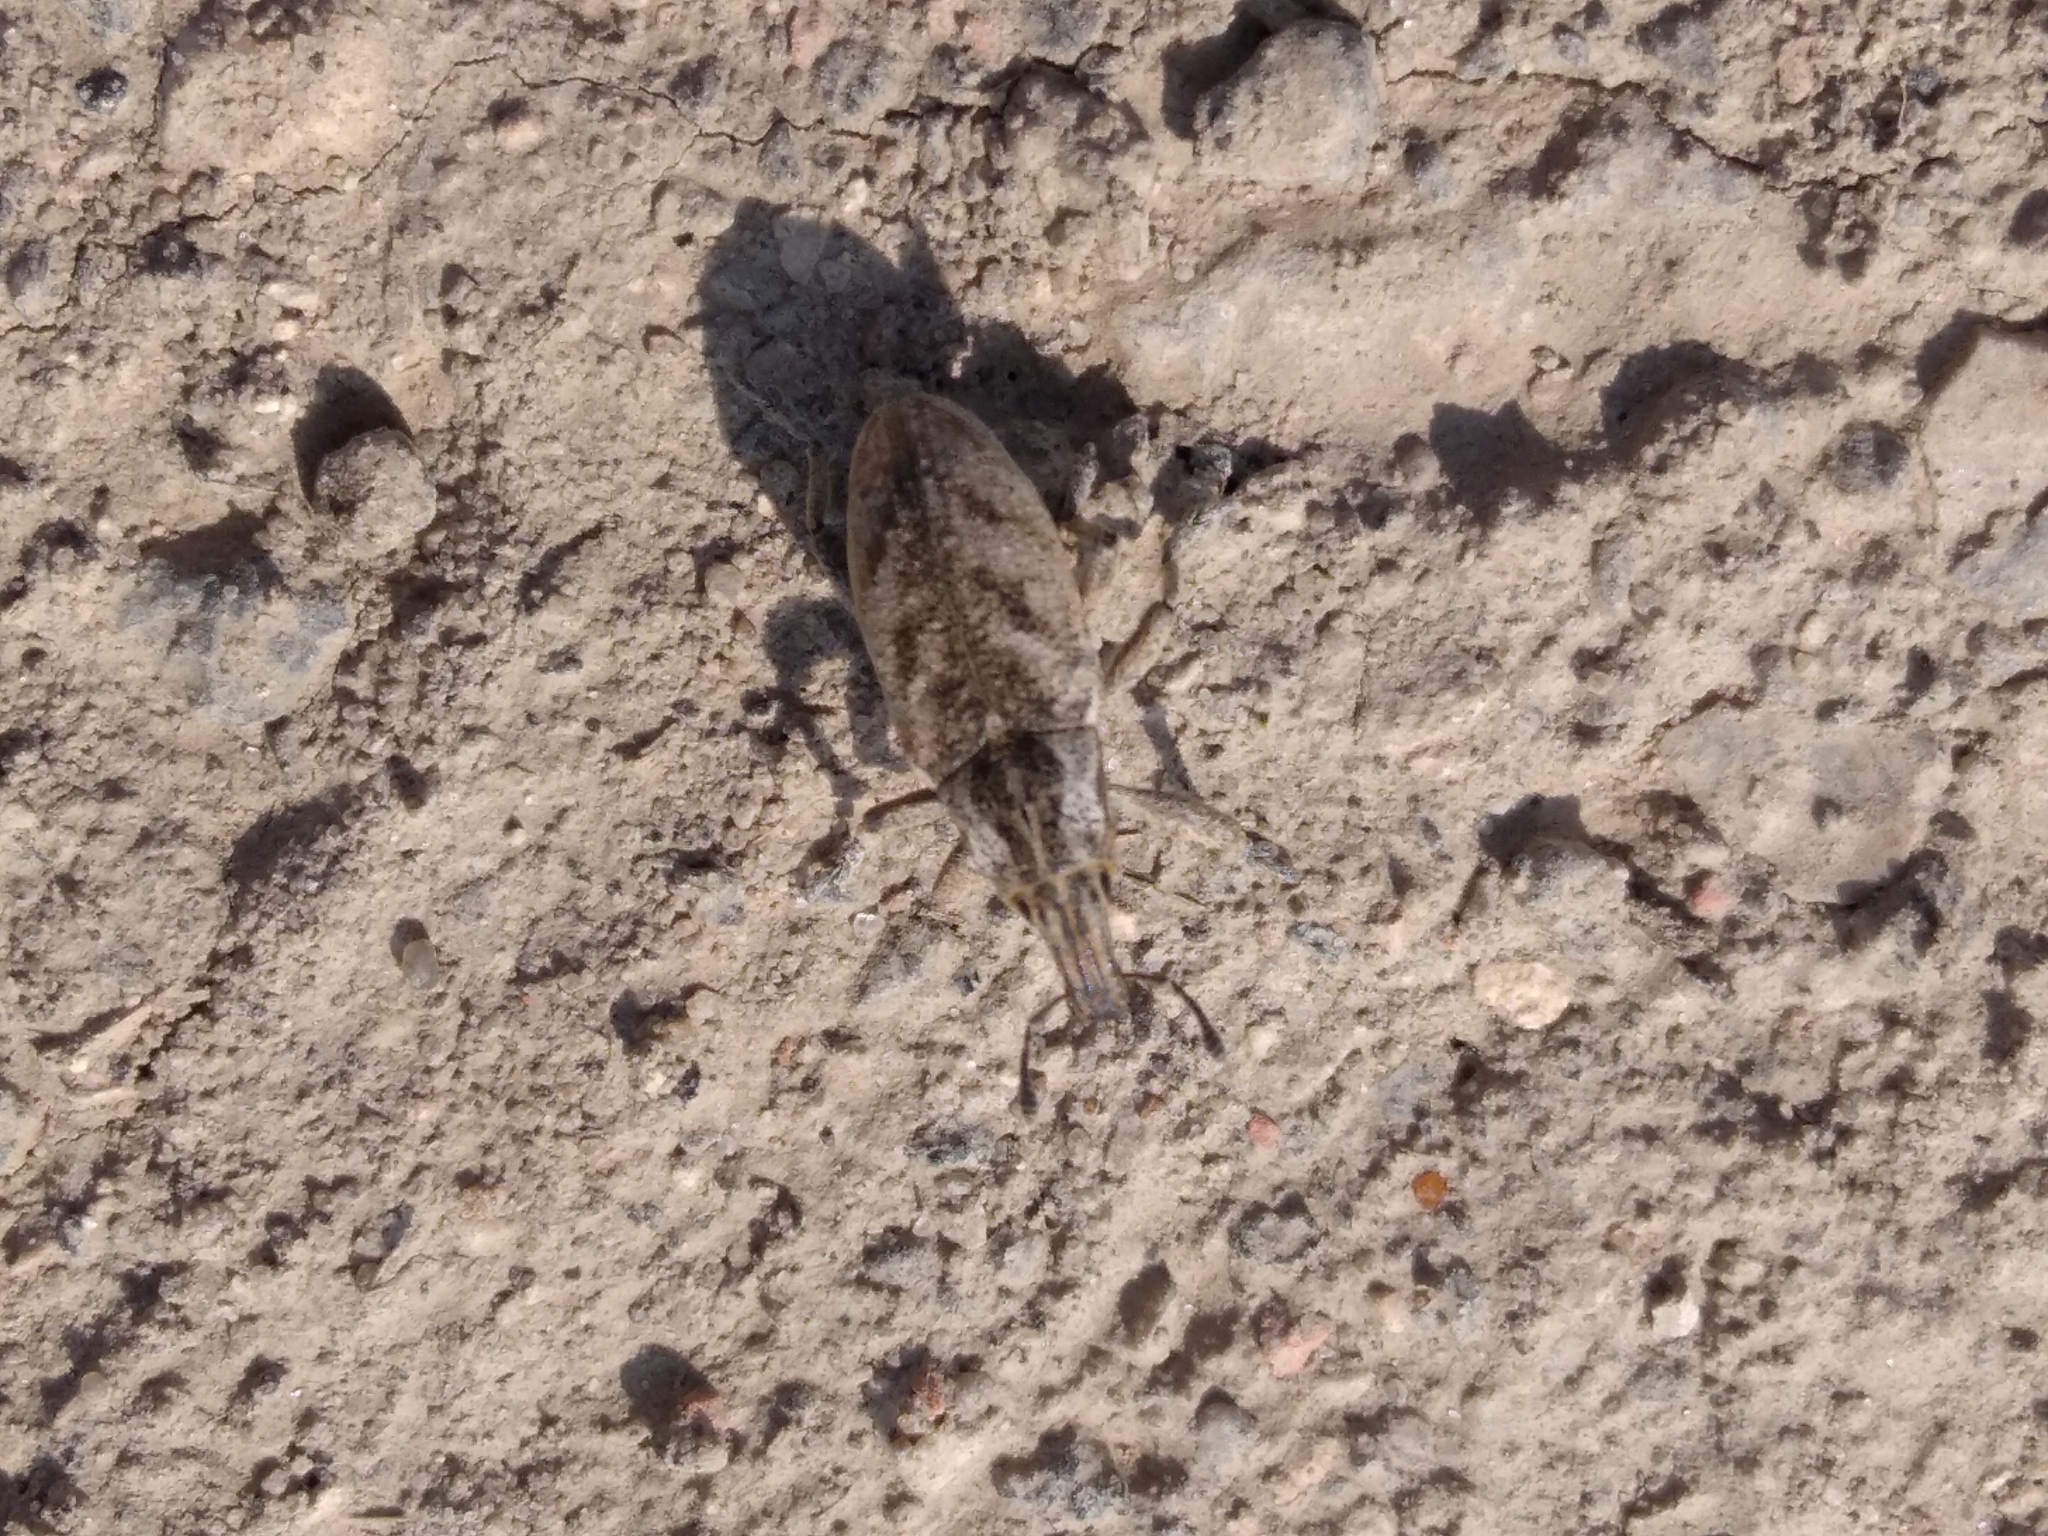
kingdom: Animalia
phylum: Arthropoda
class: Insecta
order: Coleoptera
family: Curculionidae
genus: Cleonis
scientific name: Cleonis pigra
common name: Large thistle weevil
